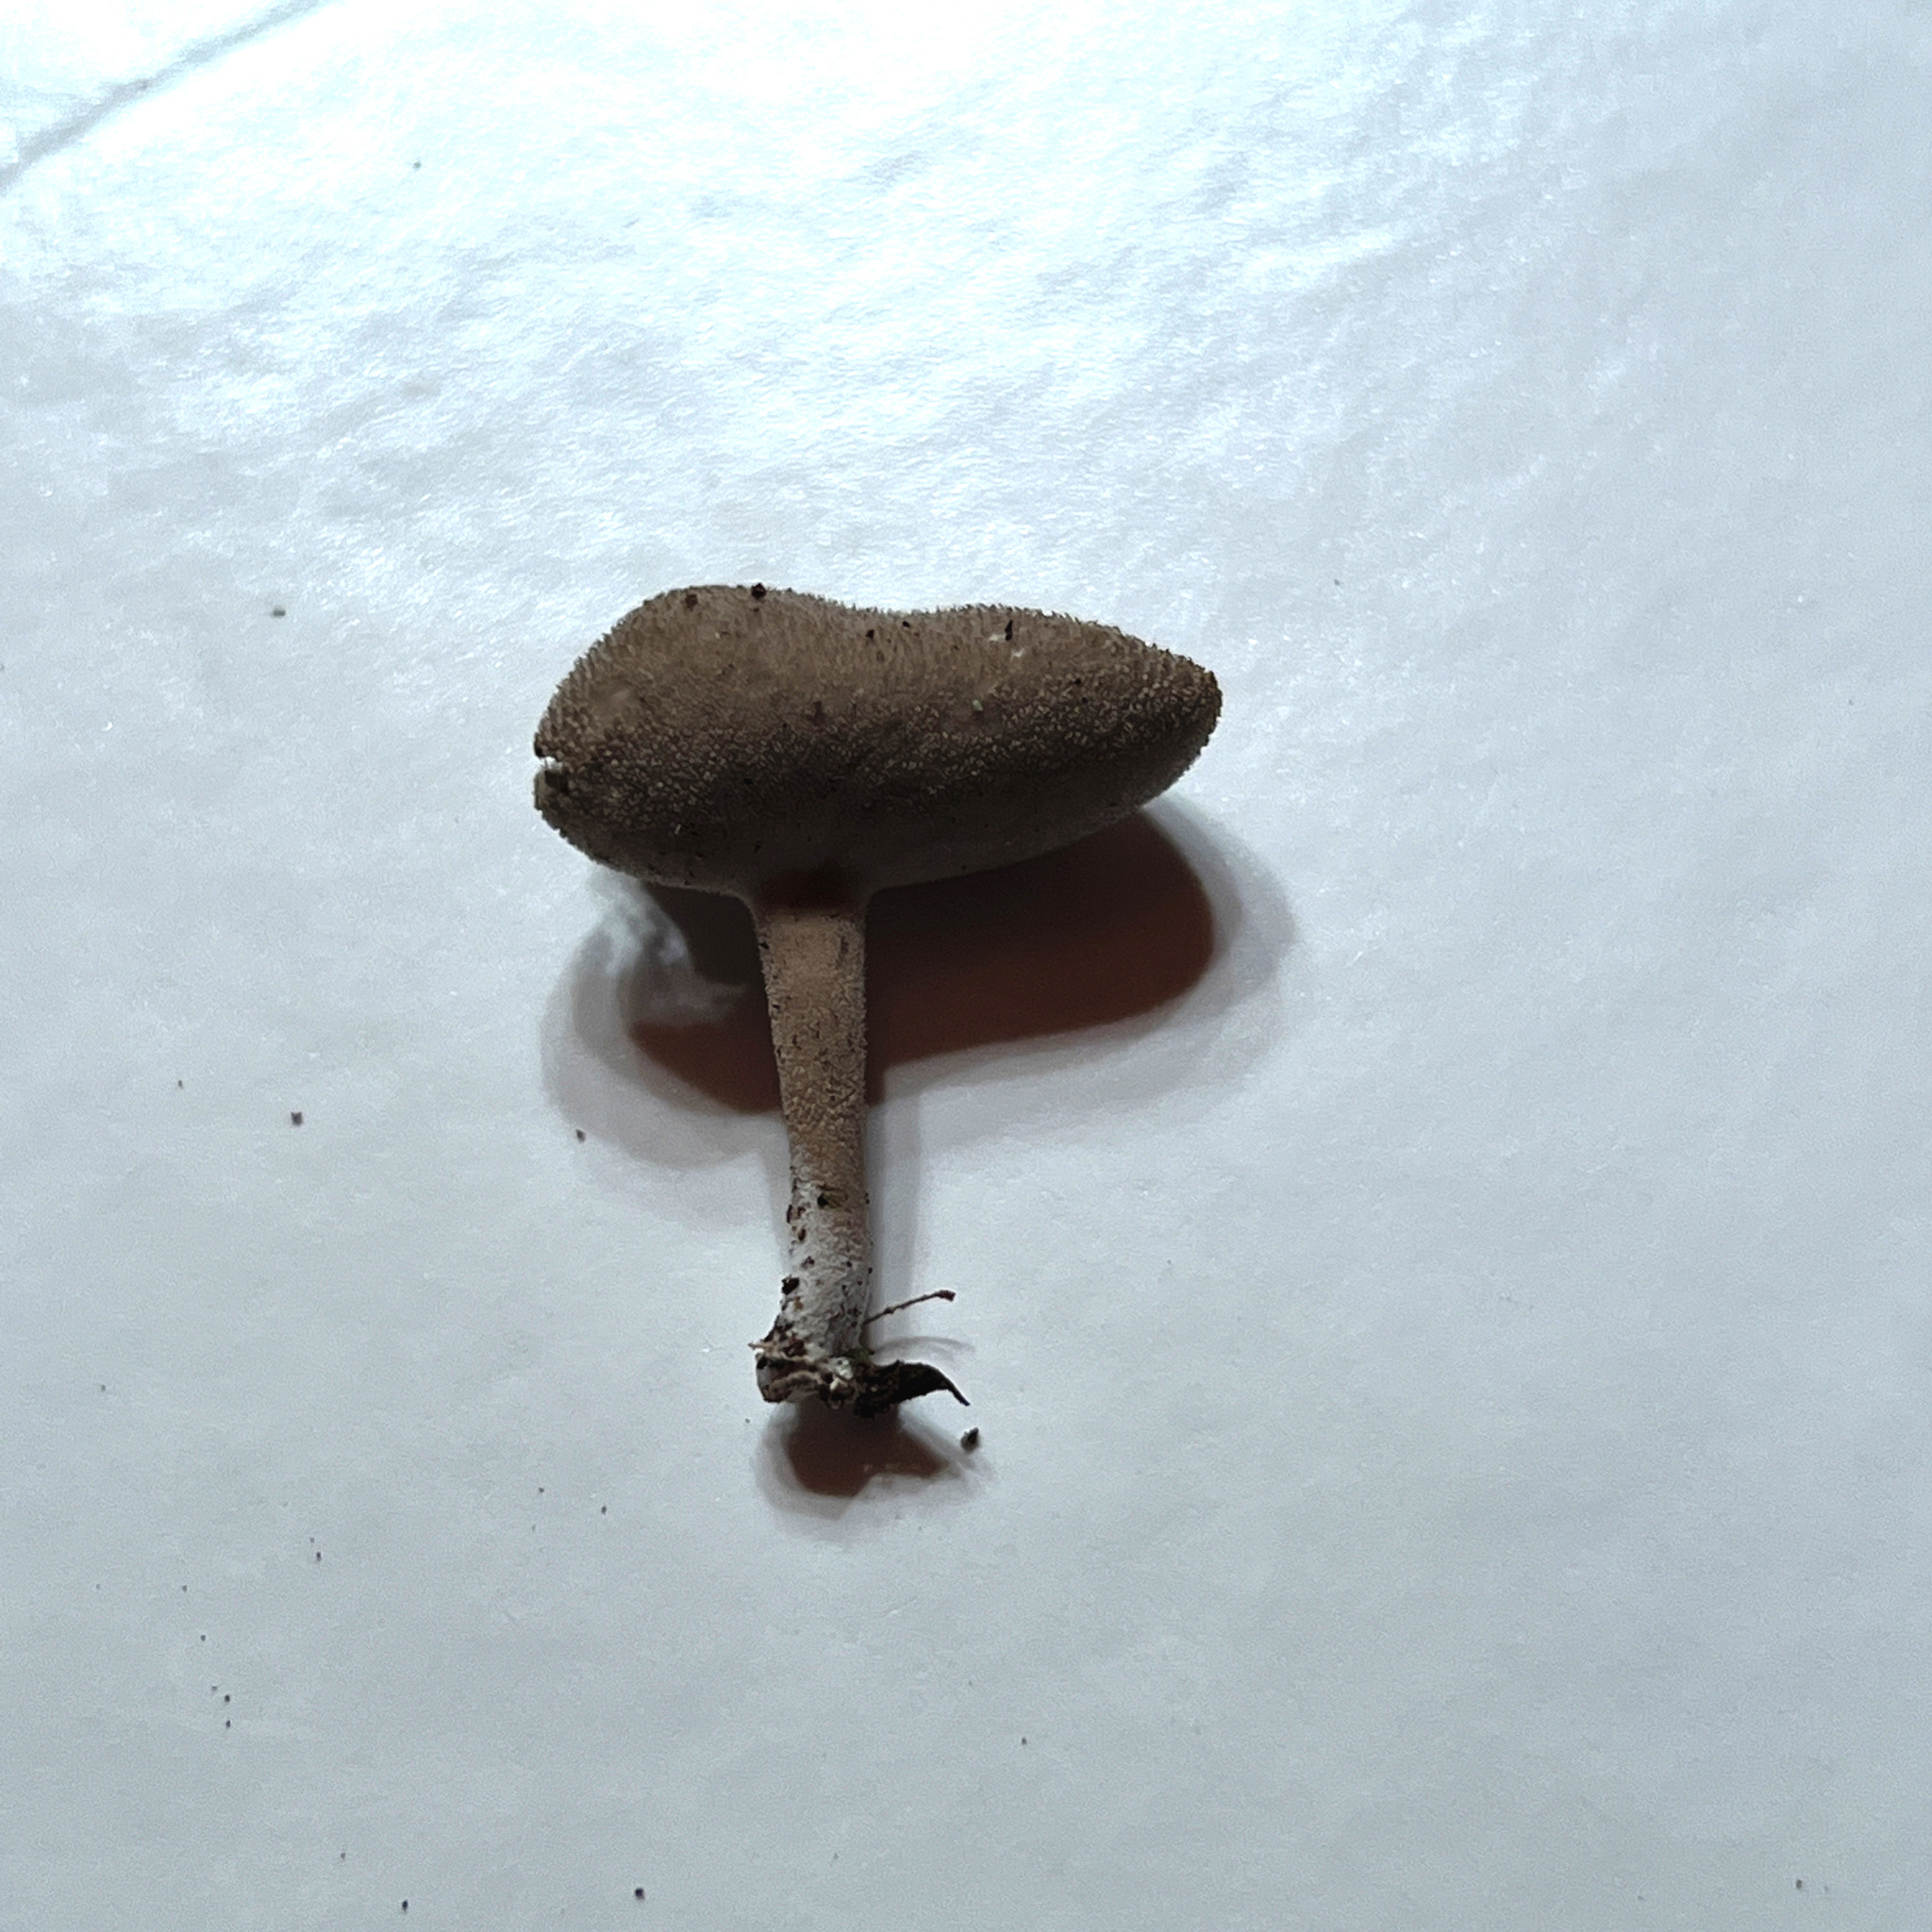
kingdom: Fungi
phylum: Ascomycota
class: Pezizomycetes
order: Pezizales
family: Helvellaceae
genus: Helvella
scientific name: Helvella macropus
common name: Felt saddle
